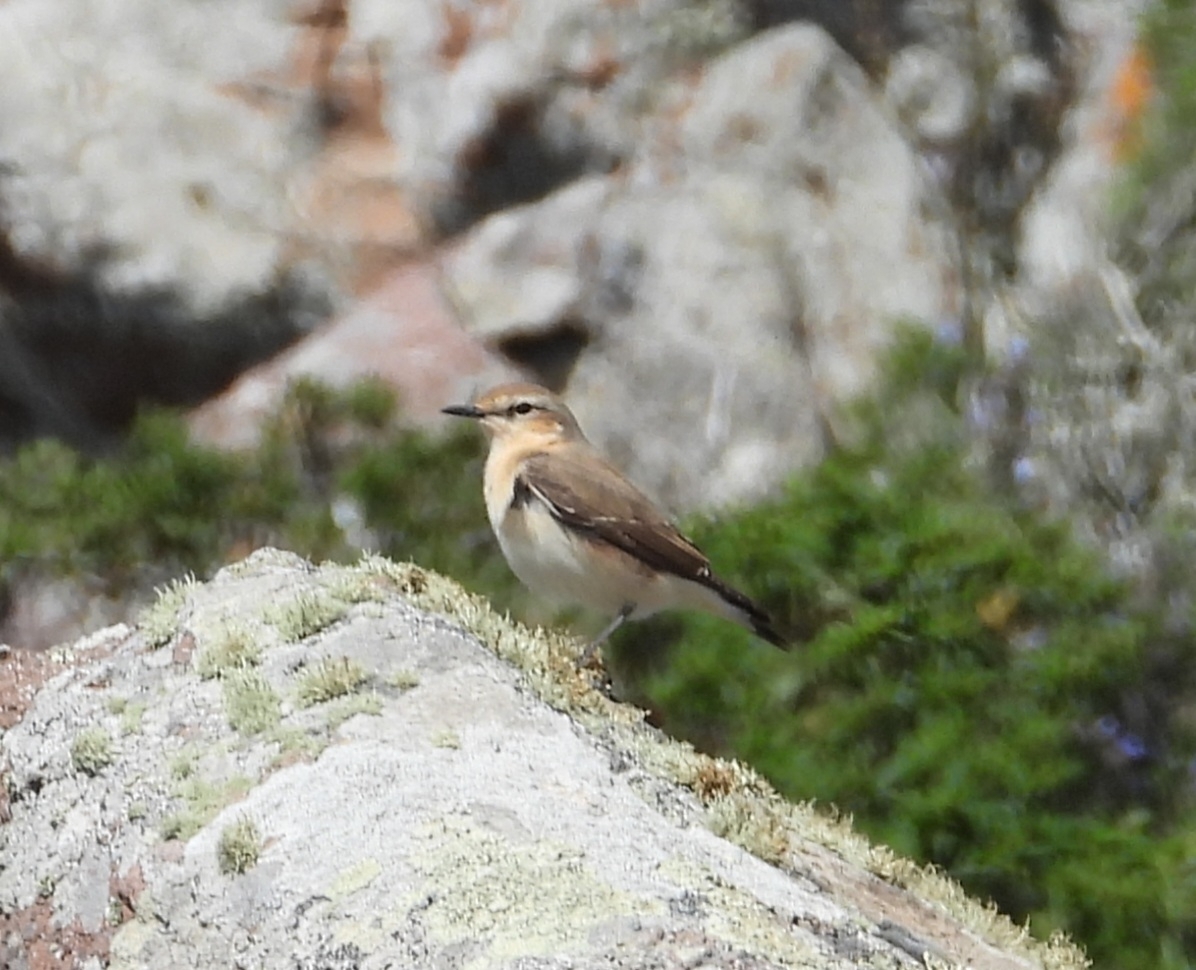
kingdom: Animalia
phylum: Chordata
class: Aves
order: Passeriformes
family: Muscicapidae
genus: Oenanthe
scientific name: Oenanthe oenanthe
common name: Northern wheatear
